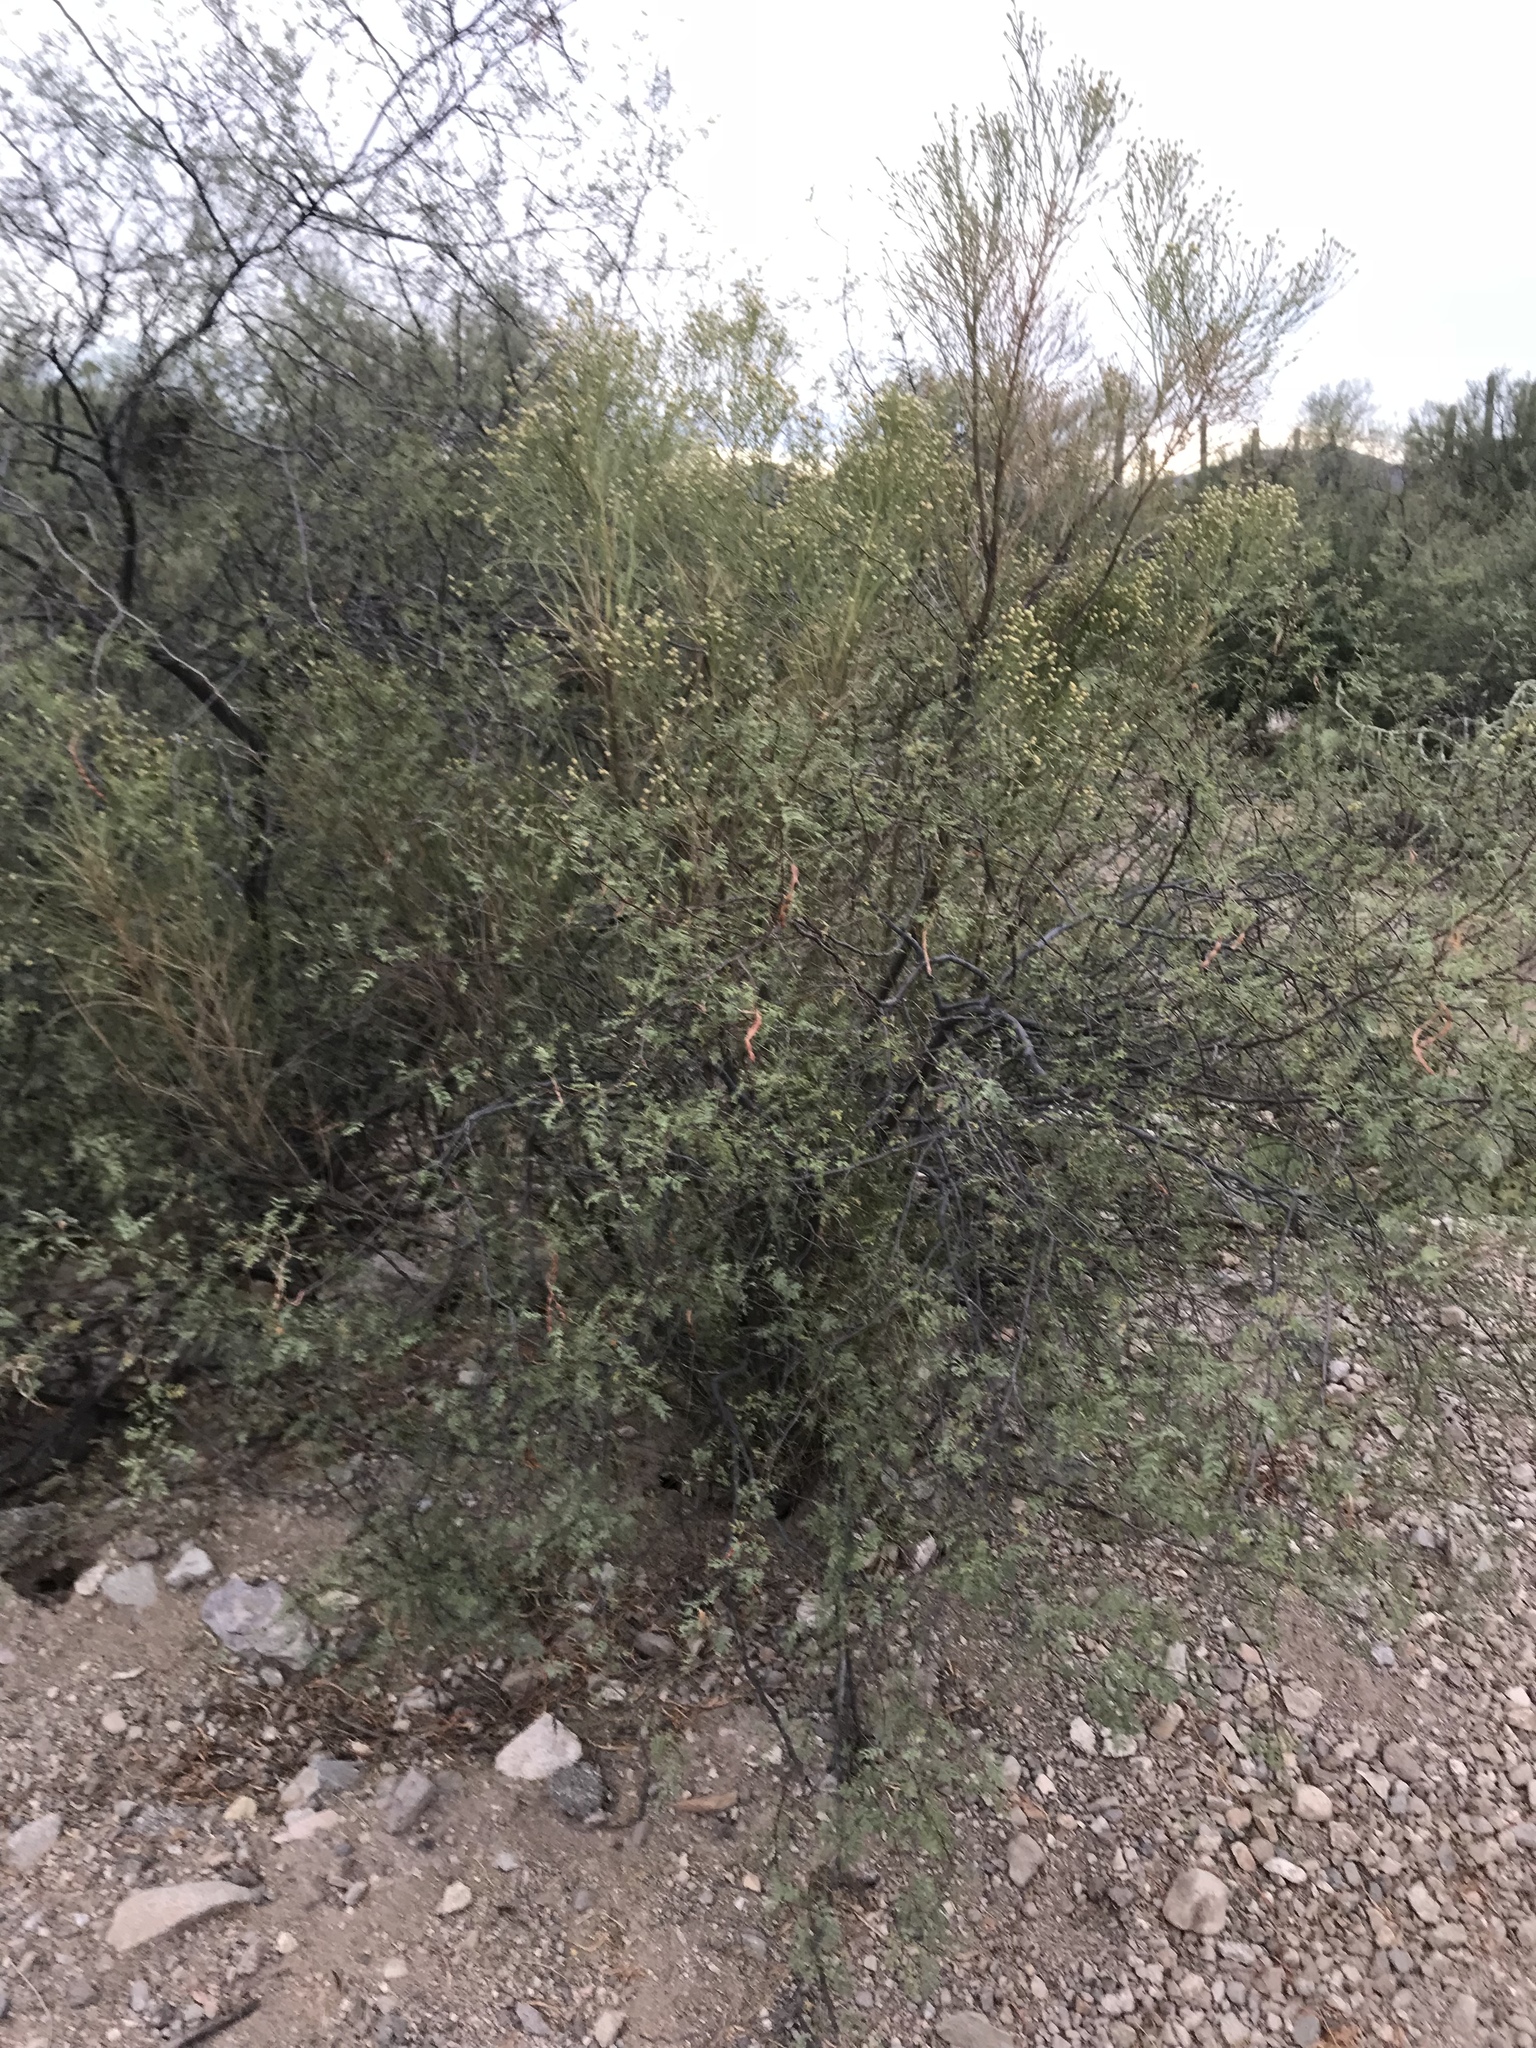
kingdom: Plantae
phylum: Tracheophyta
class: Magnoliopsida
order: Fabales
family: Fabaceae
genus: Vachellia
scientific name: Vachellia constricta
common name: Mescat acacia
